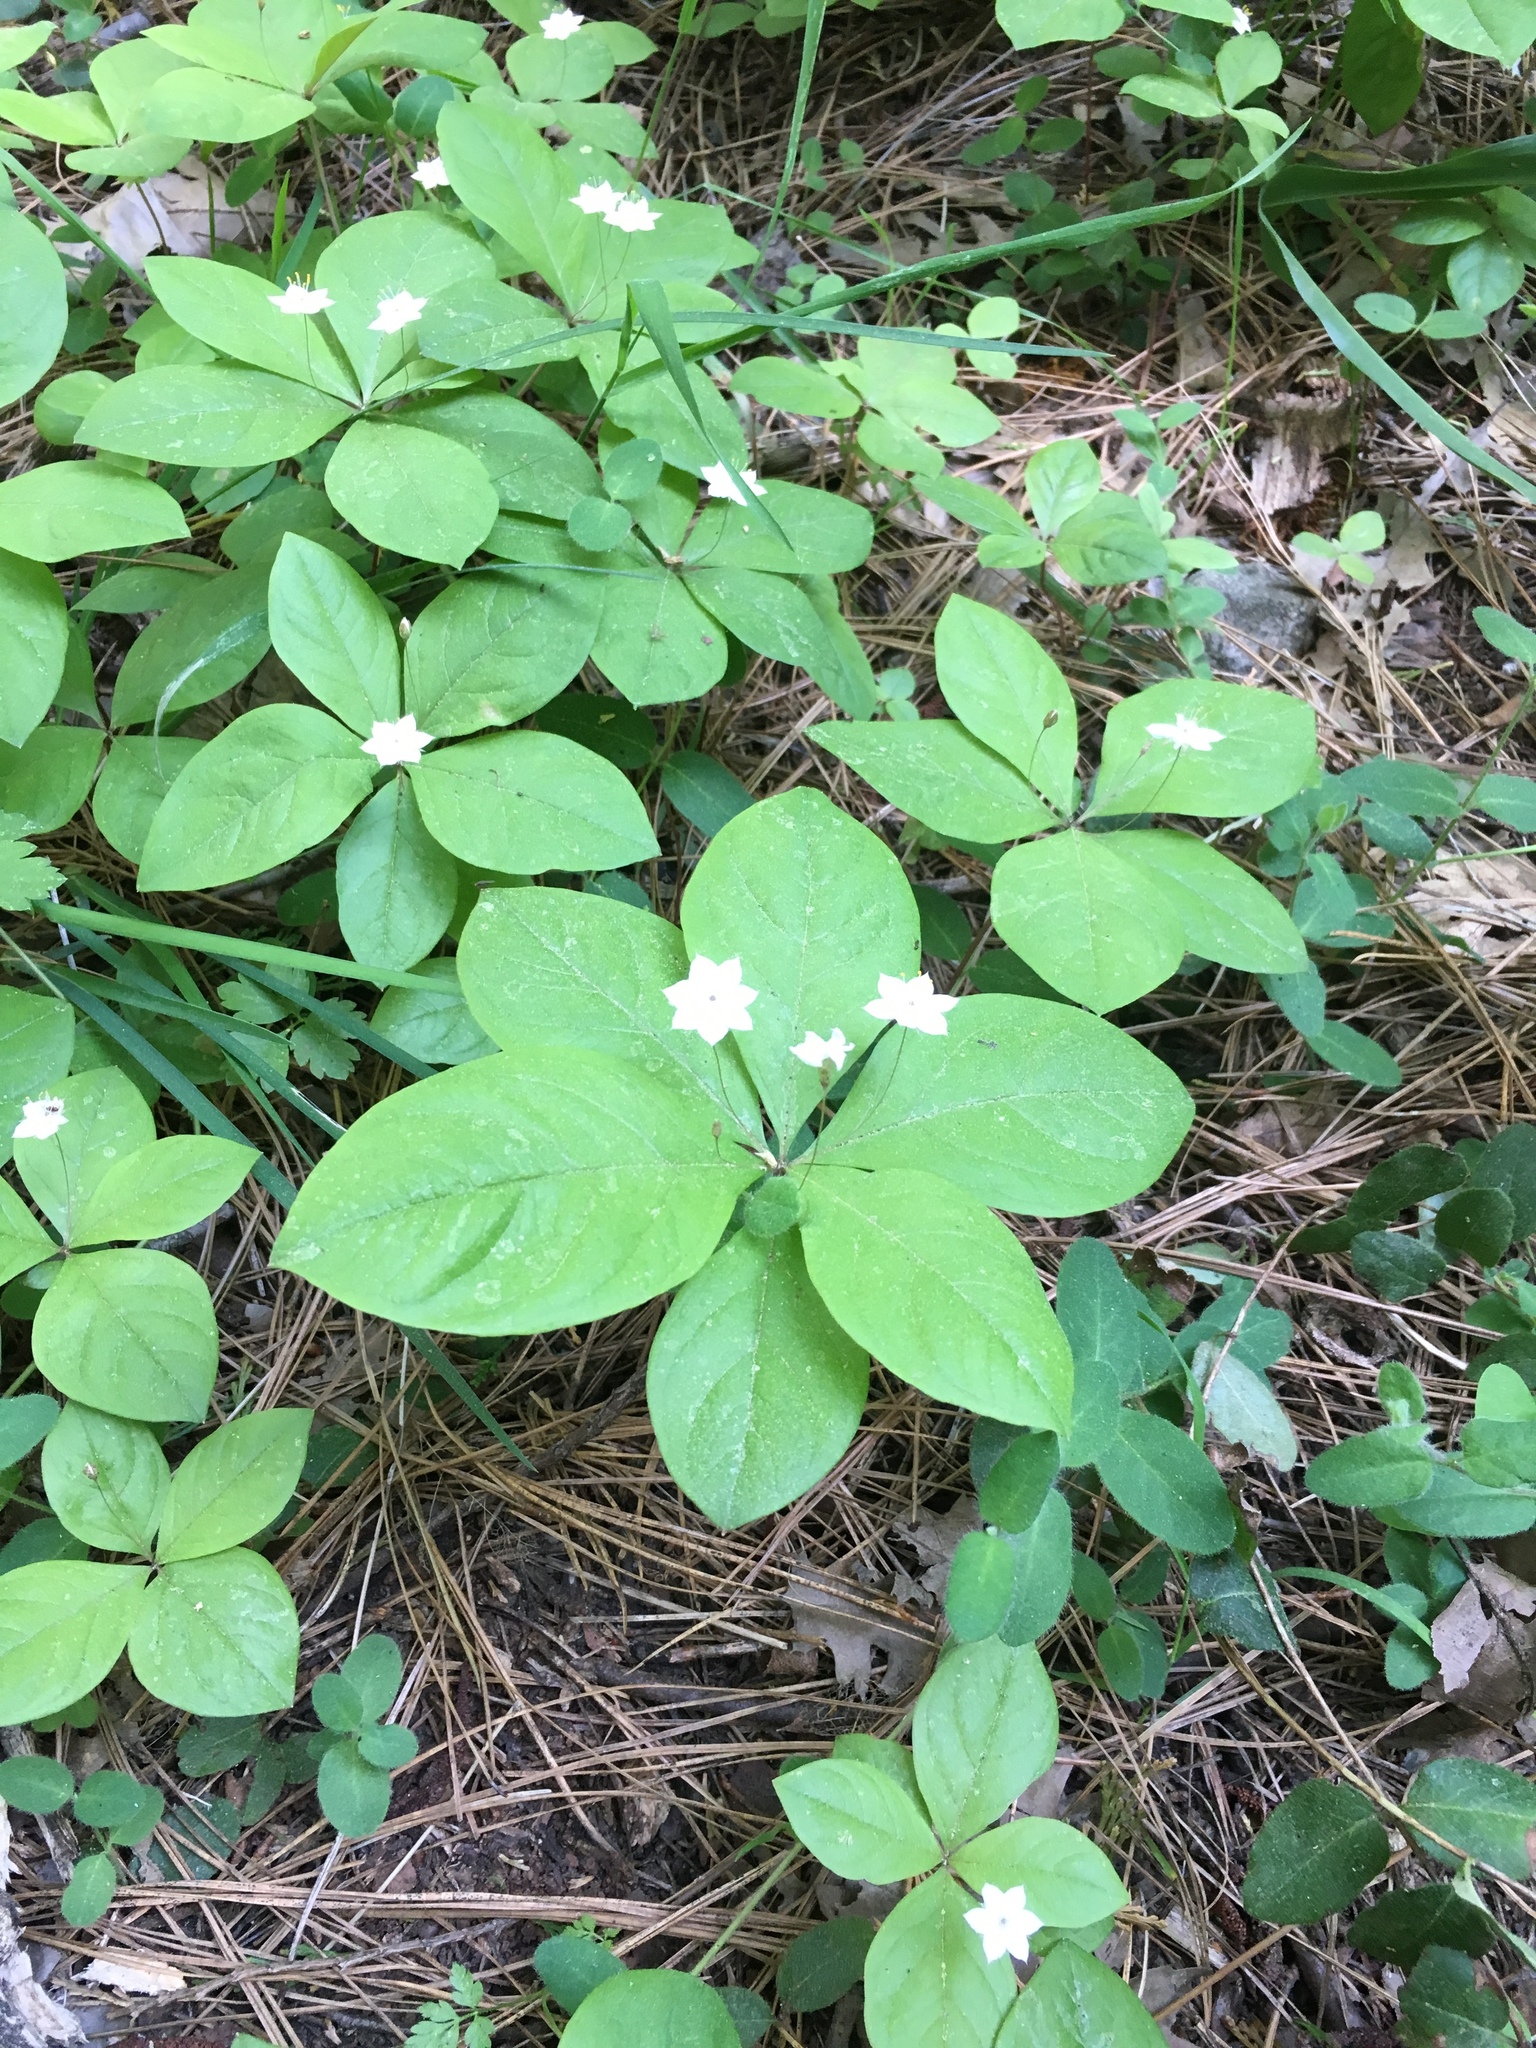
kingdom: Plantae
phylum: Tracheophyta
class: Magnoliopsida
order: Ericales
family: Primulaceae
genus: Lysimachia
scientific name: Lysimachia latifolia
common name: Pacific starflower
